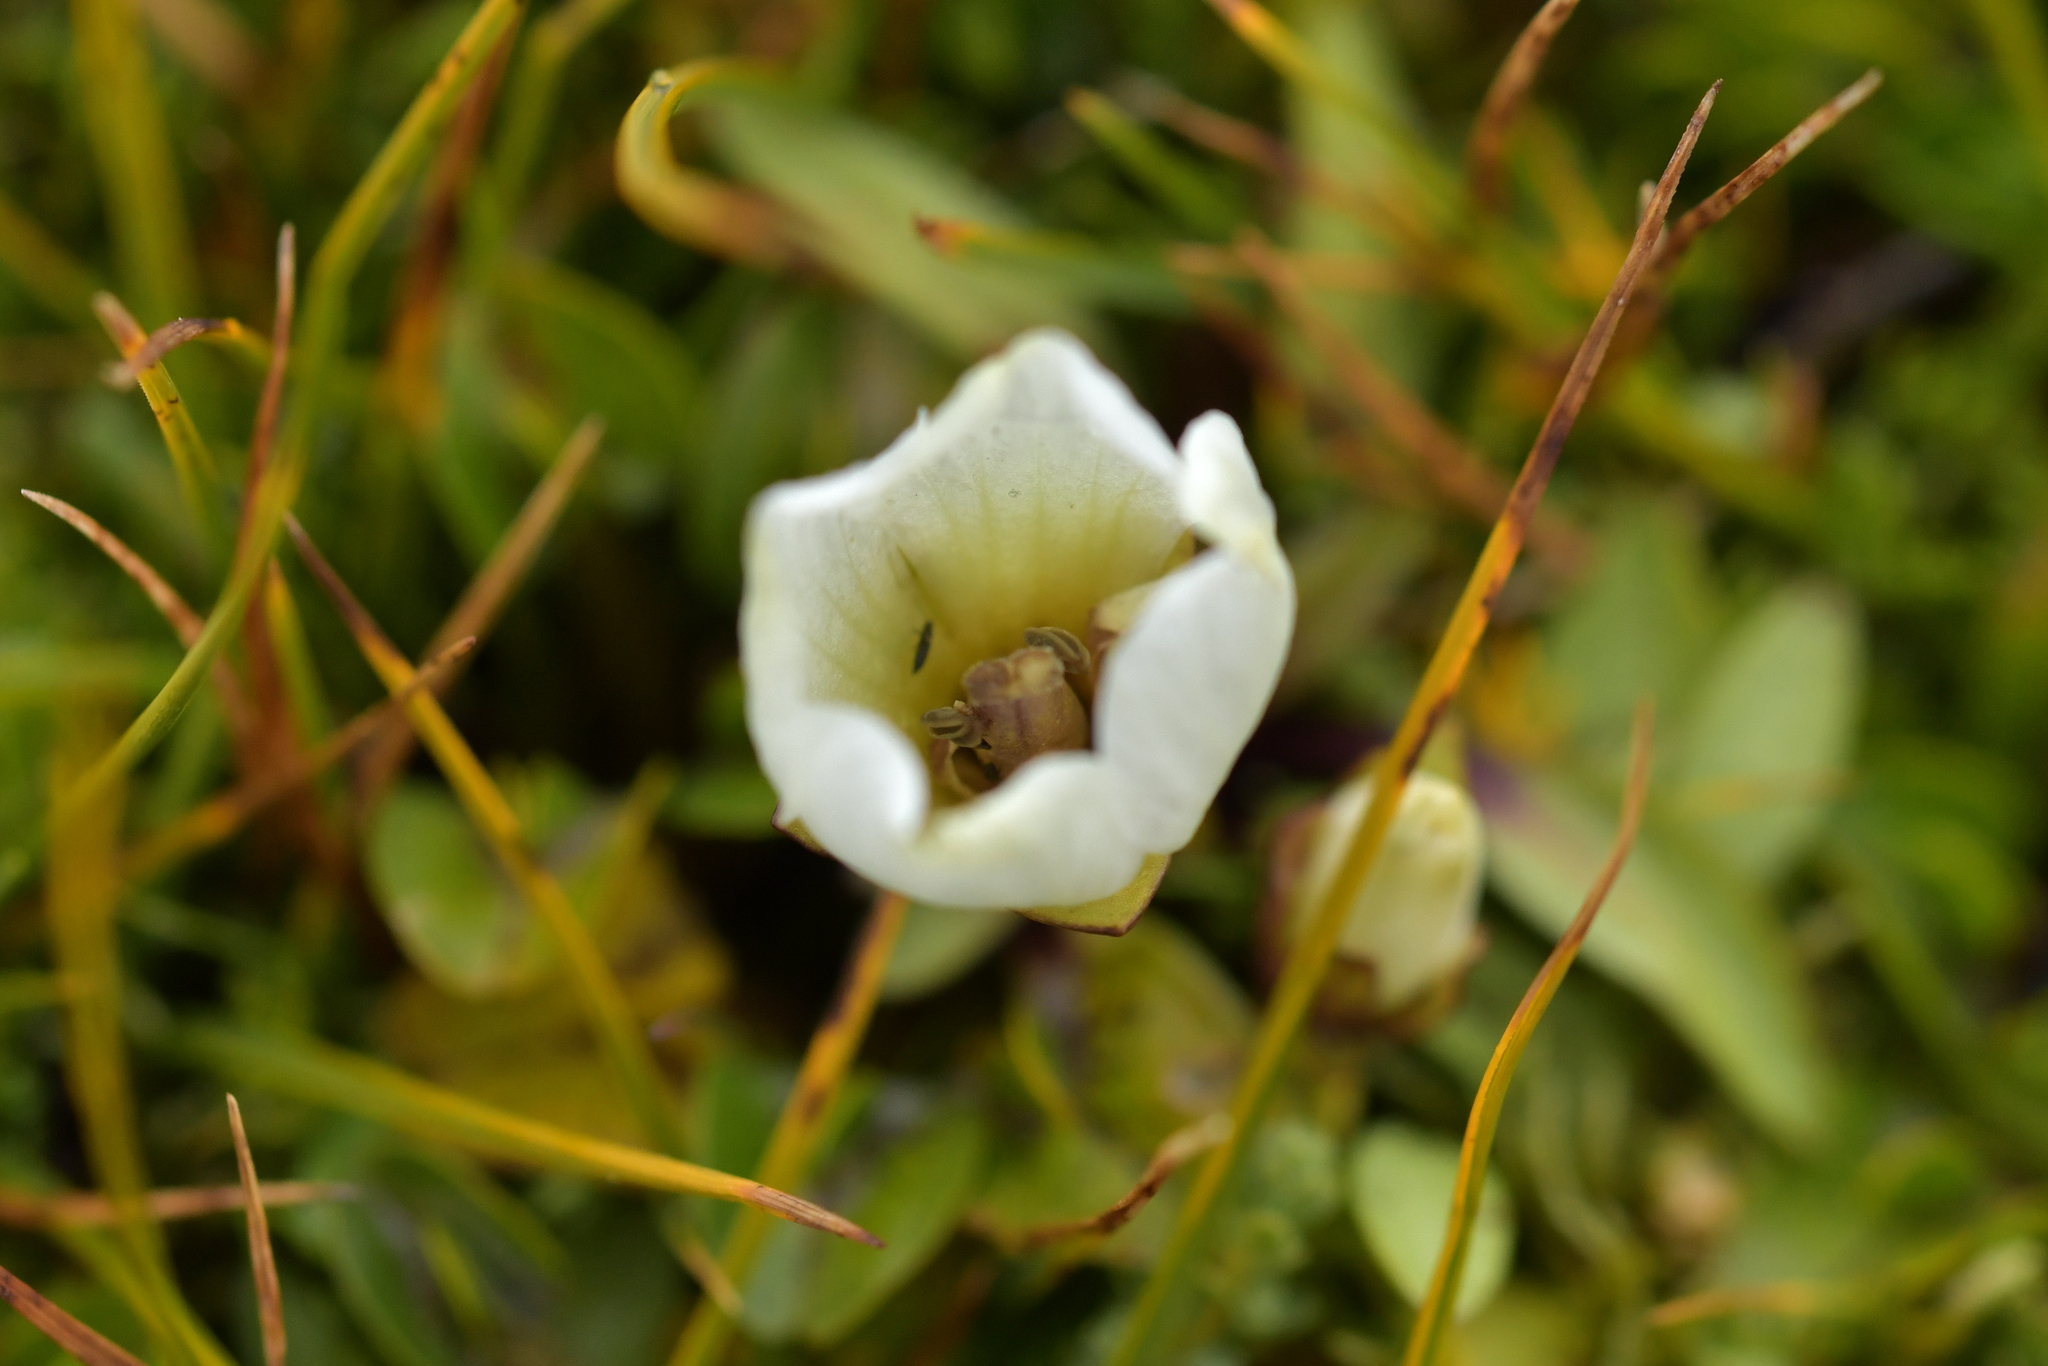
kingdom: Plantae
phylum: Tracheophyta
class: Magnoliopsida
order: Gentianales
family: Gentianaceae
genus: Gentianella
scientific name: Gentianella amabilis
